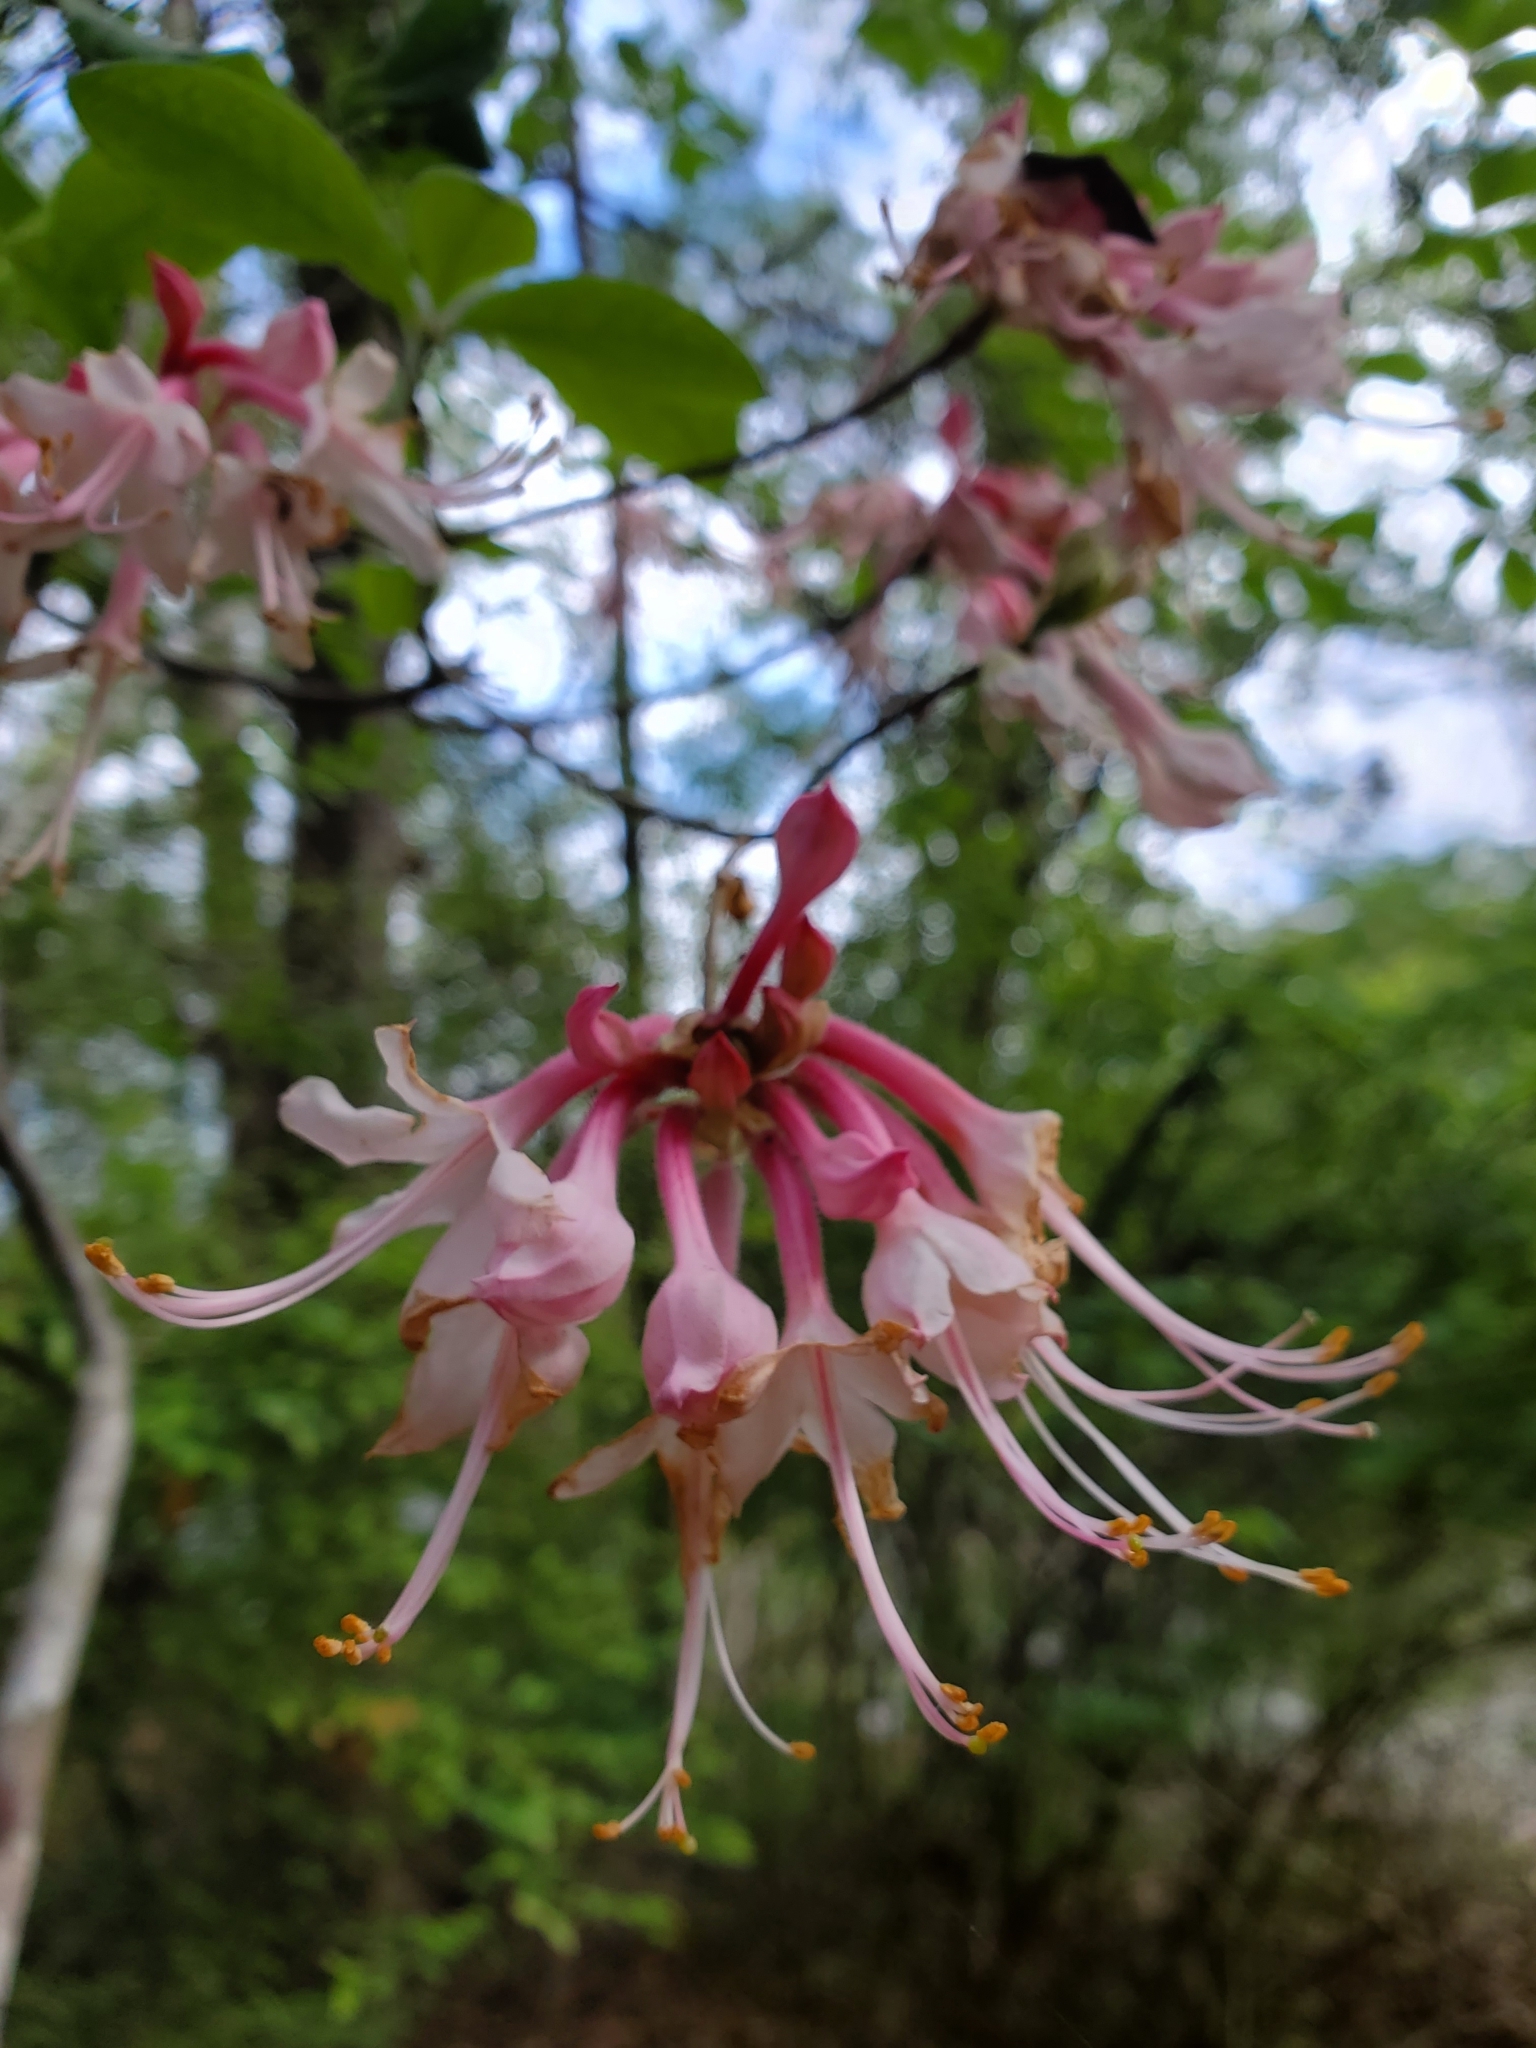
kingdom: Plantae
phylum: Tracheophyta
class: Magnoliopsida
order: Ericales
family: Ericaceae
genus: Rhododendron
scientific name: Rhododendron canescens
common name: Mountain azalea
